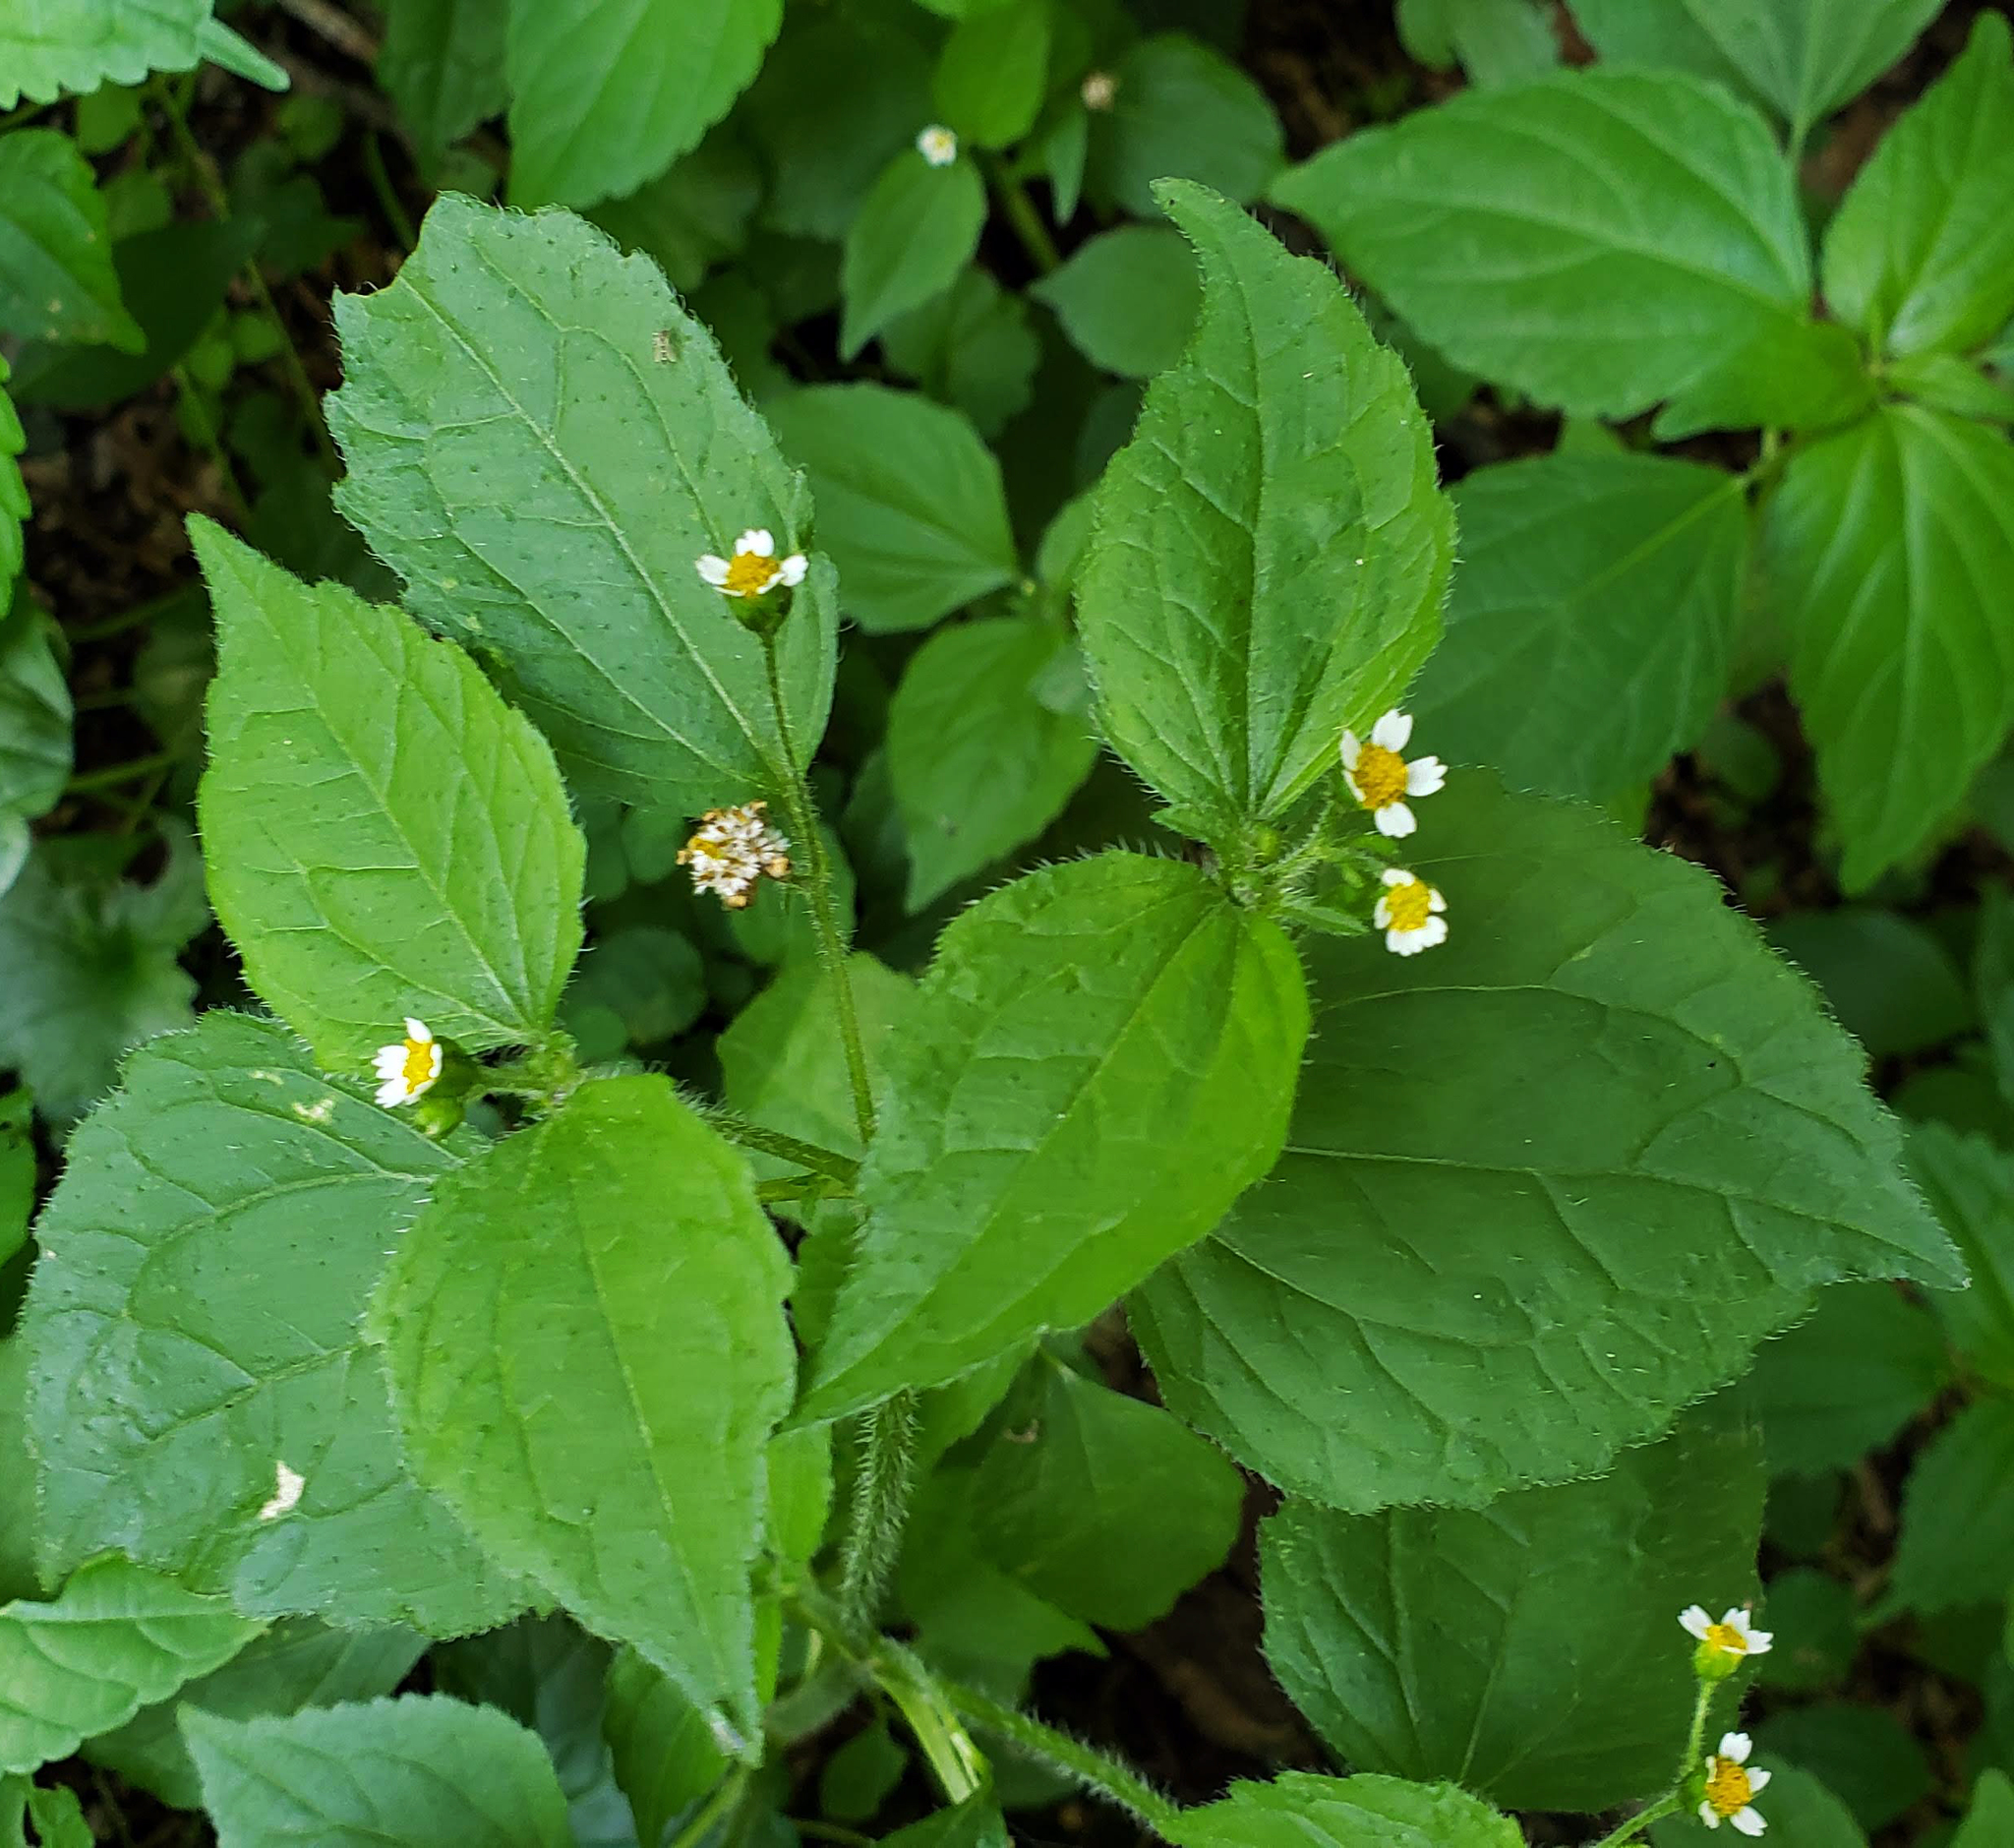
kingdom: Plantae
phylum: Tracheophyta
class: Magnoliopsida
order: Asterales
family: Asteraceae
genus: Galinsoga
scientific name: Galinsoga quadriradiata
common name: Shaggy soldier
